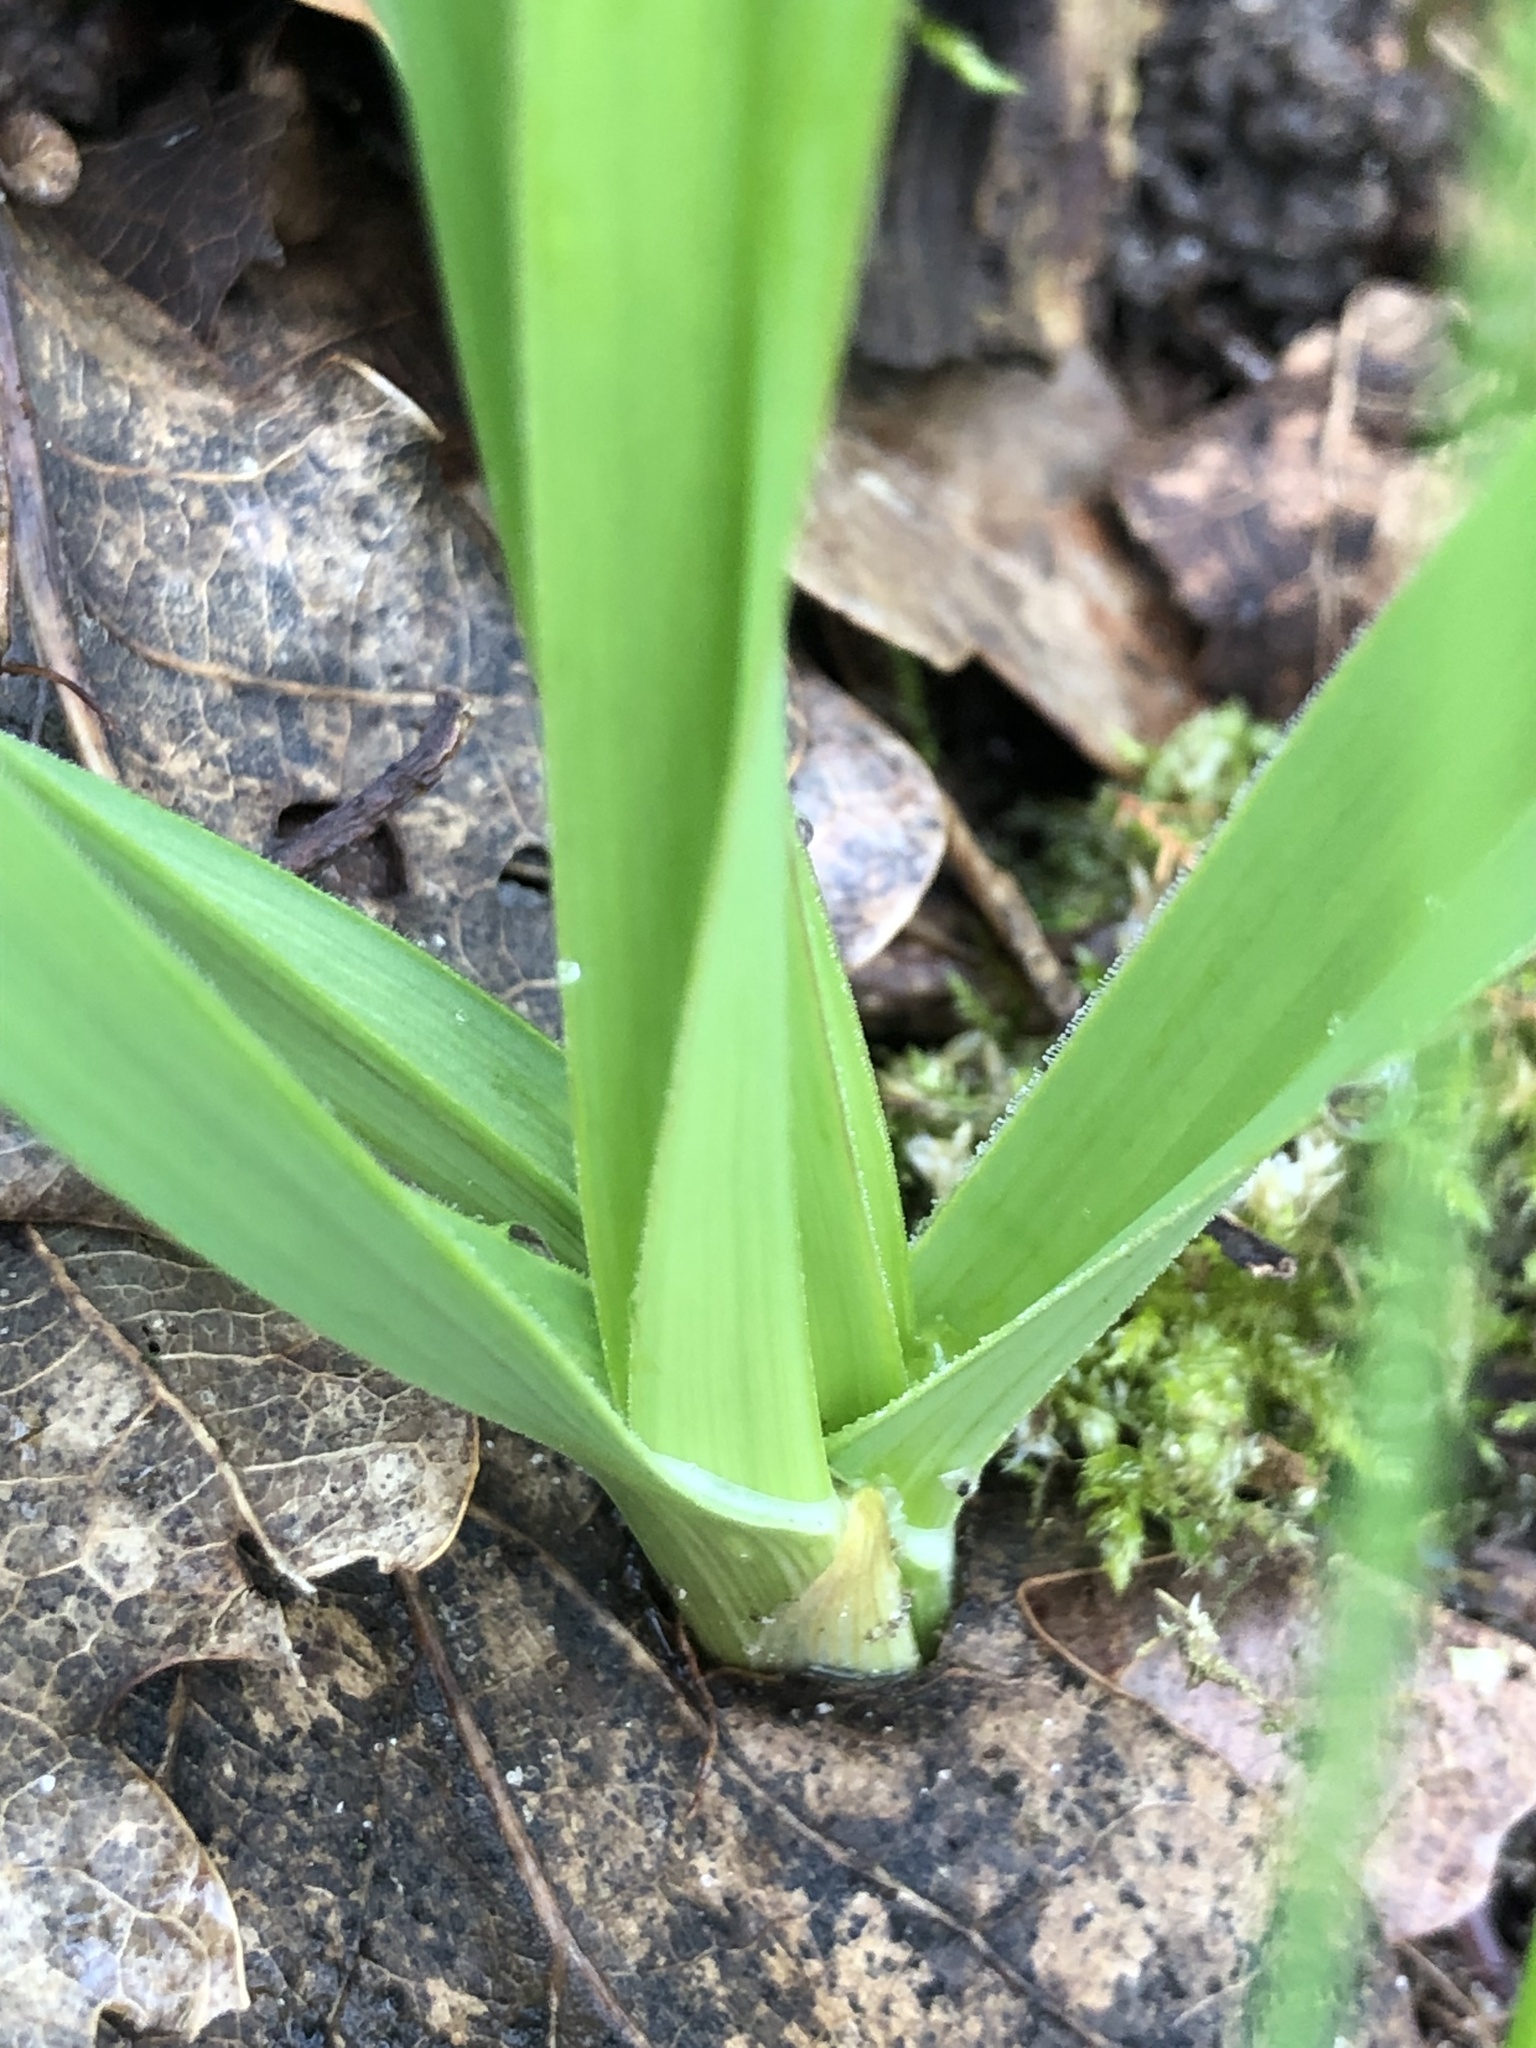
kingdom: Plantae
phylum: Tracheophyta
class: Liliopsida
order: Asparagales
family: Amaryllidaceae
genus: Allium
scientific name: Allium scorodoprasum
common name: Sand leek
